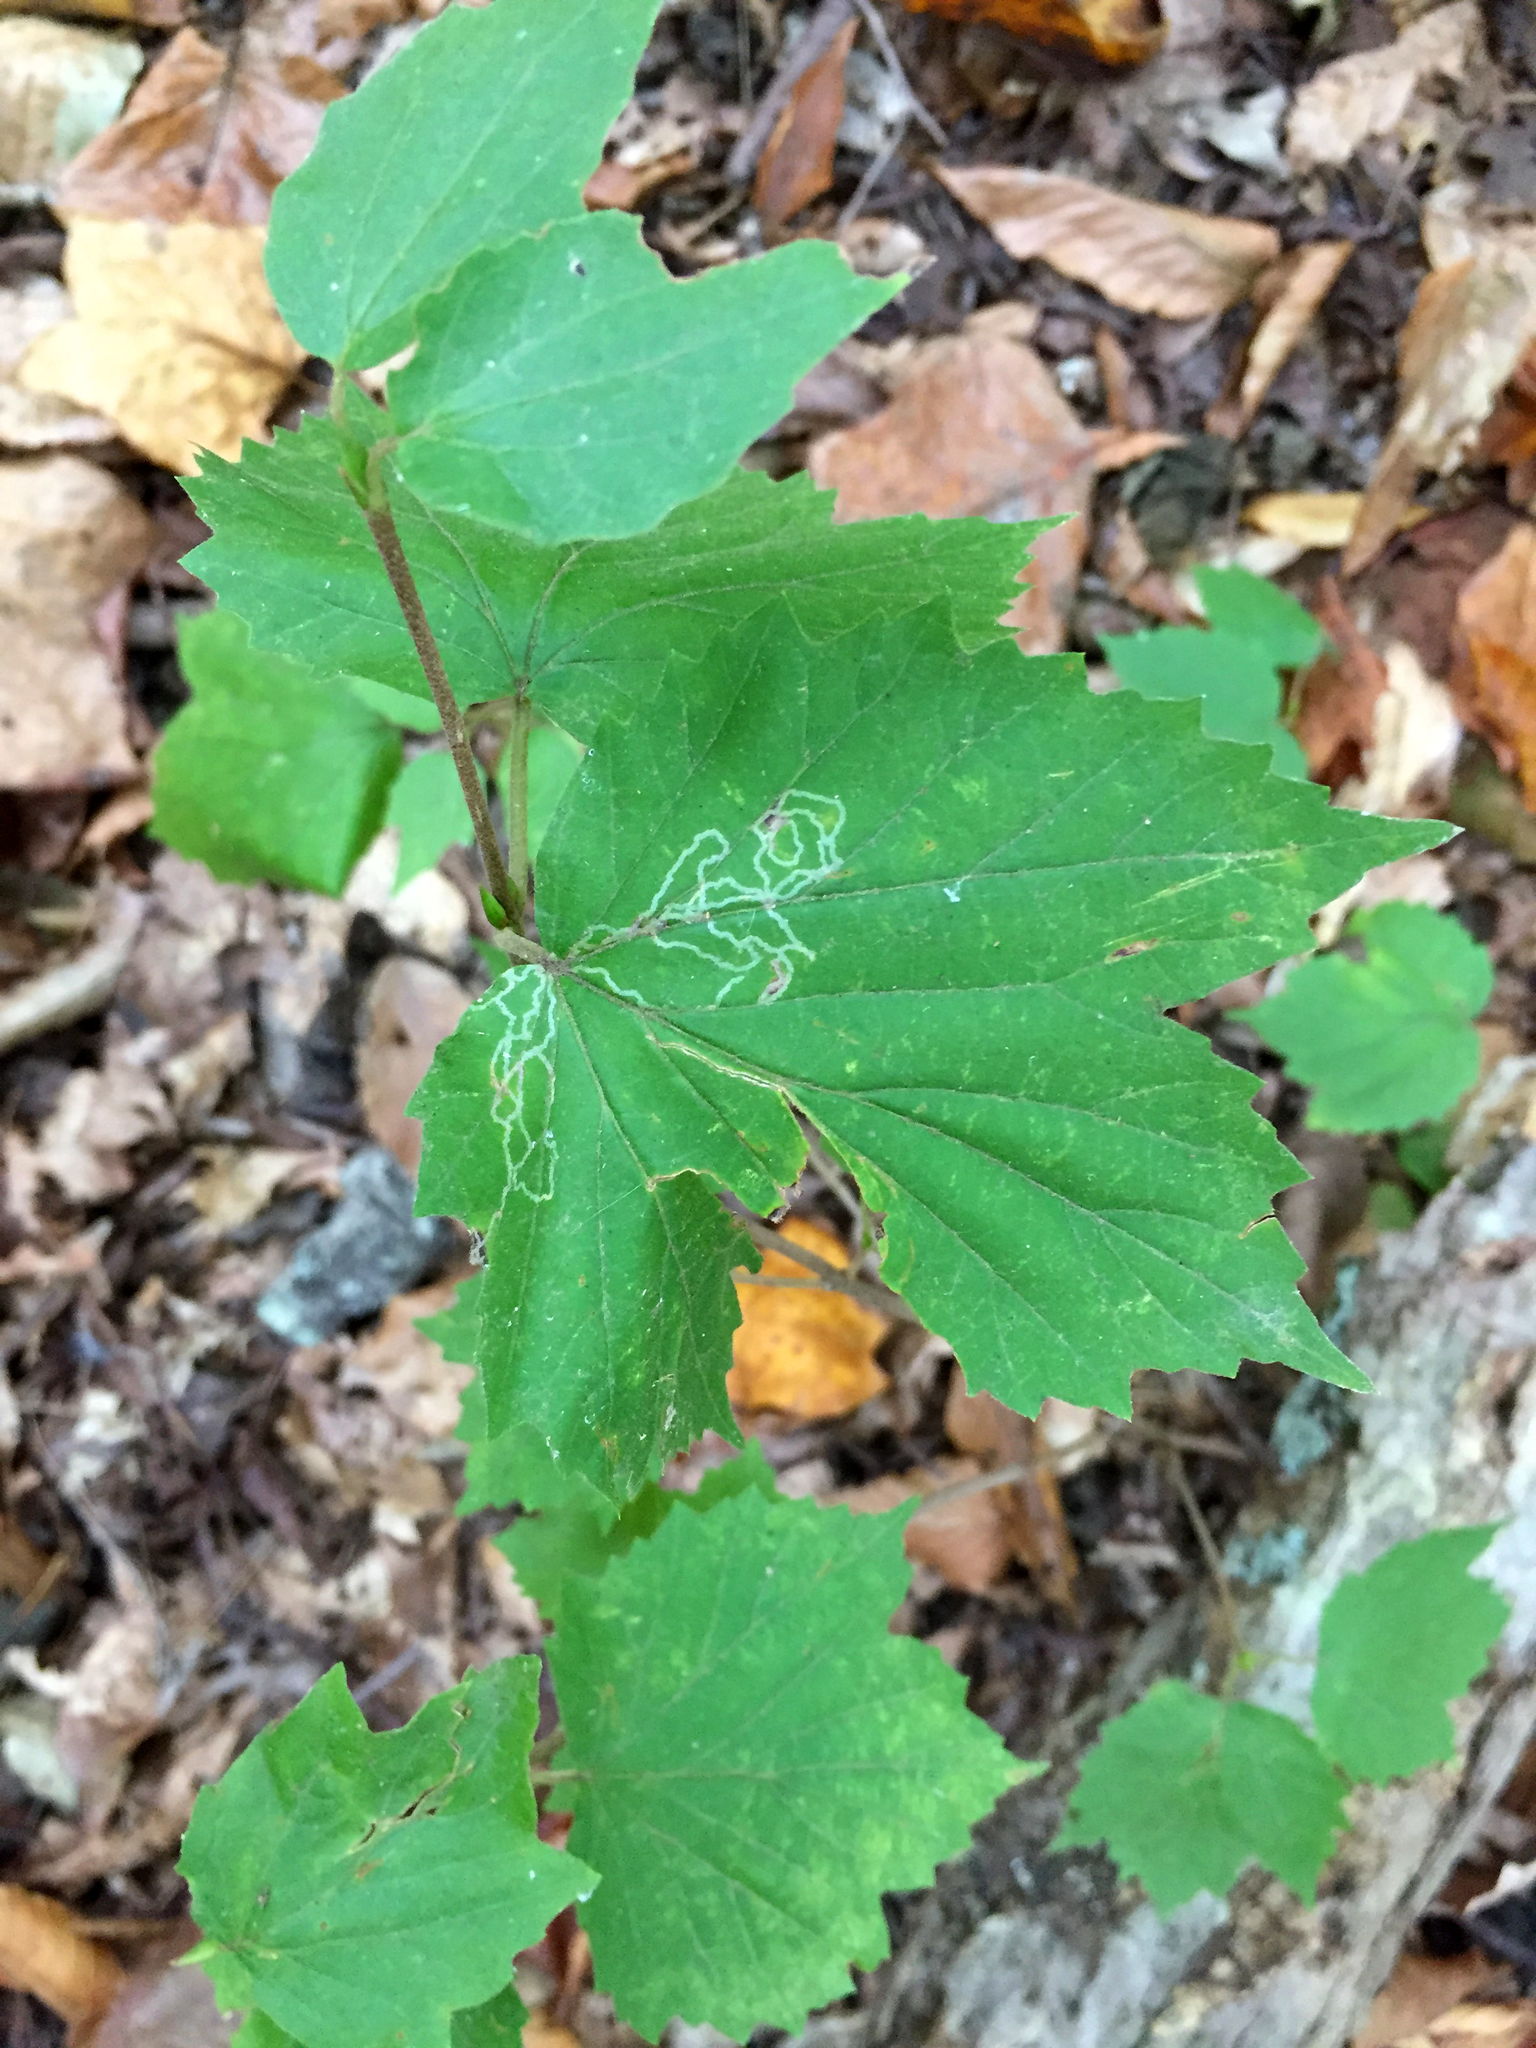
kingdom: Animalia
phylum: Arthropoda
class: Insecta
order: Lepidoptera
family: Gracillariidae
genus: Marmara
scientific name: Marmara viburnella
